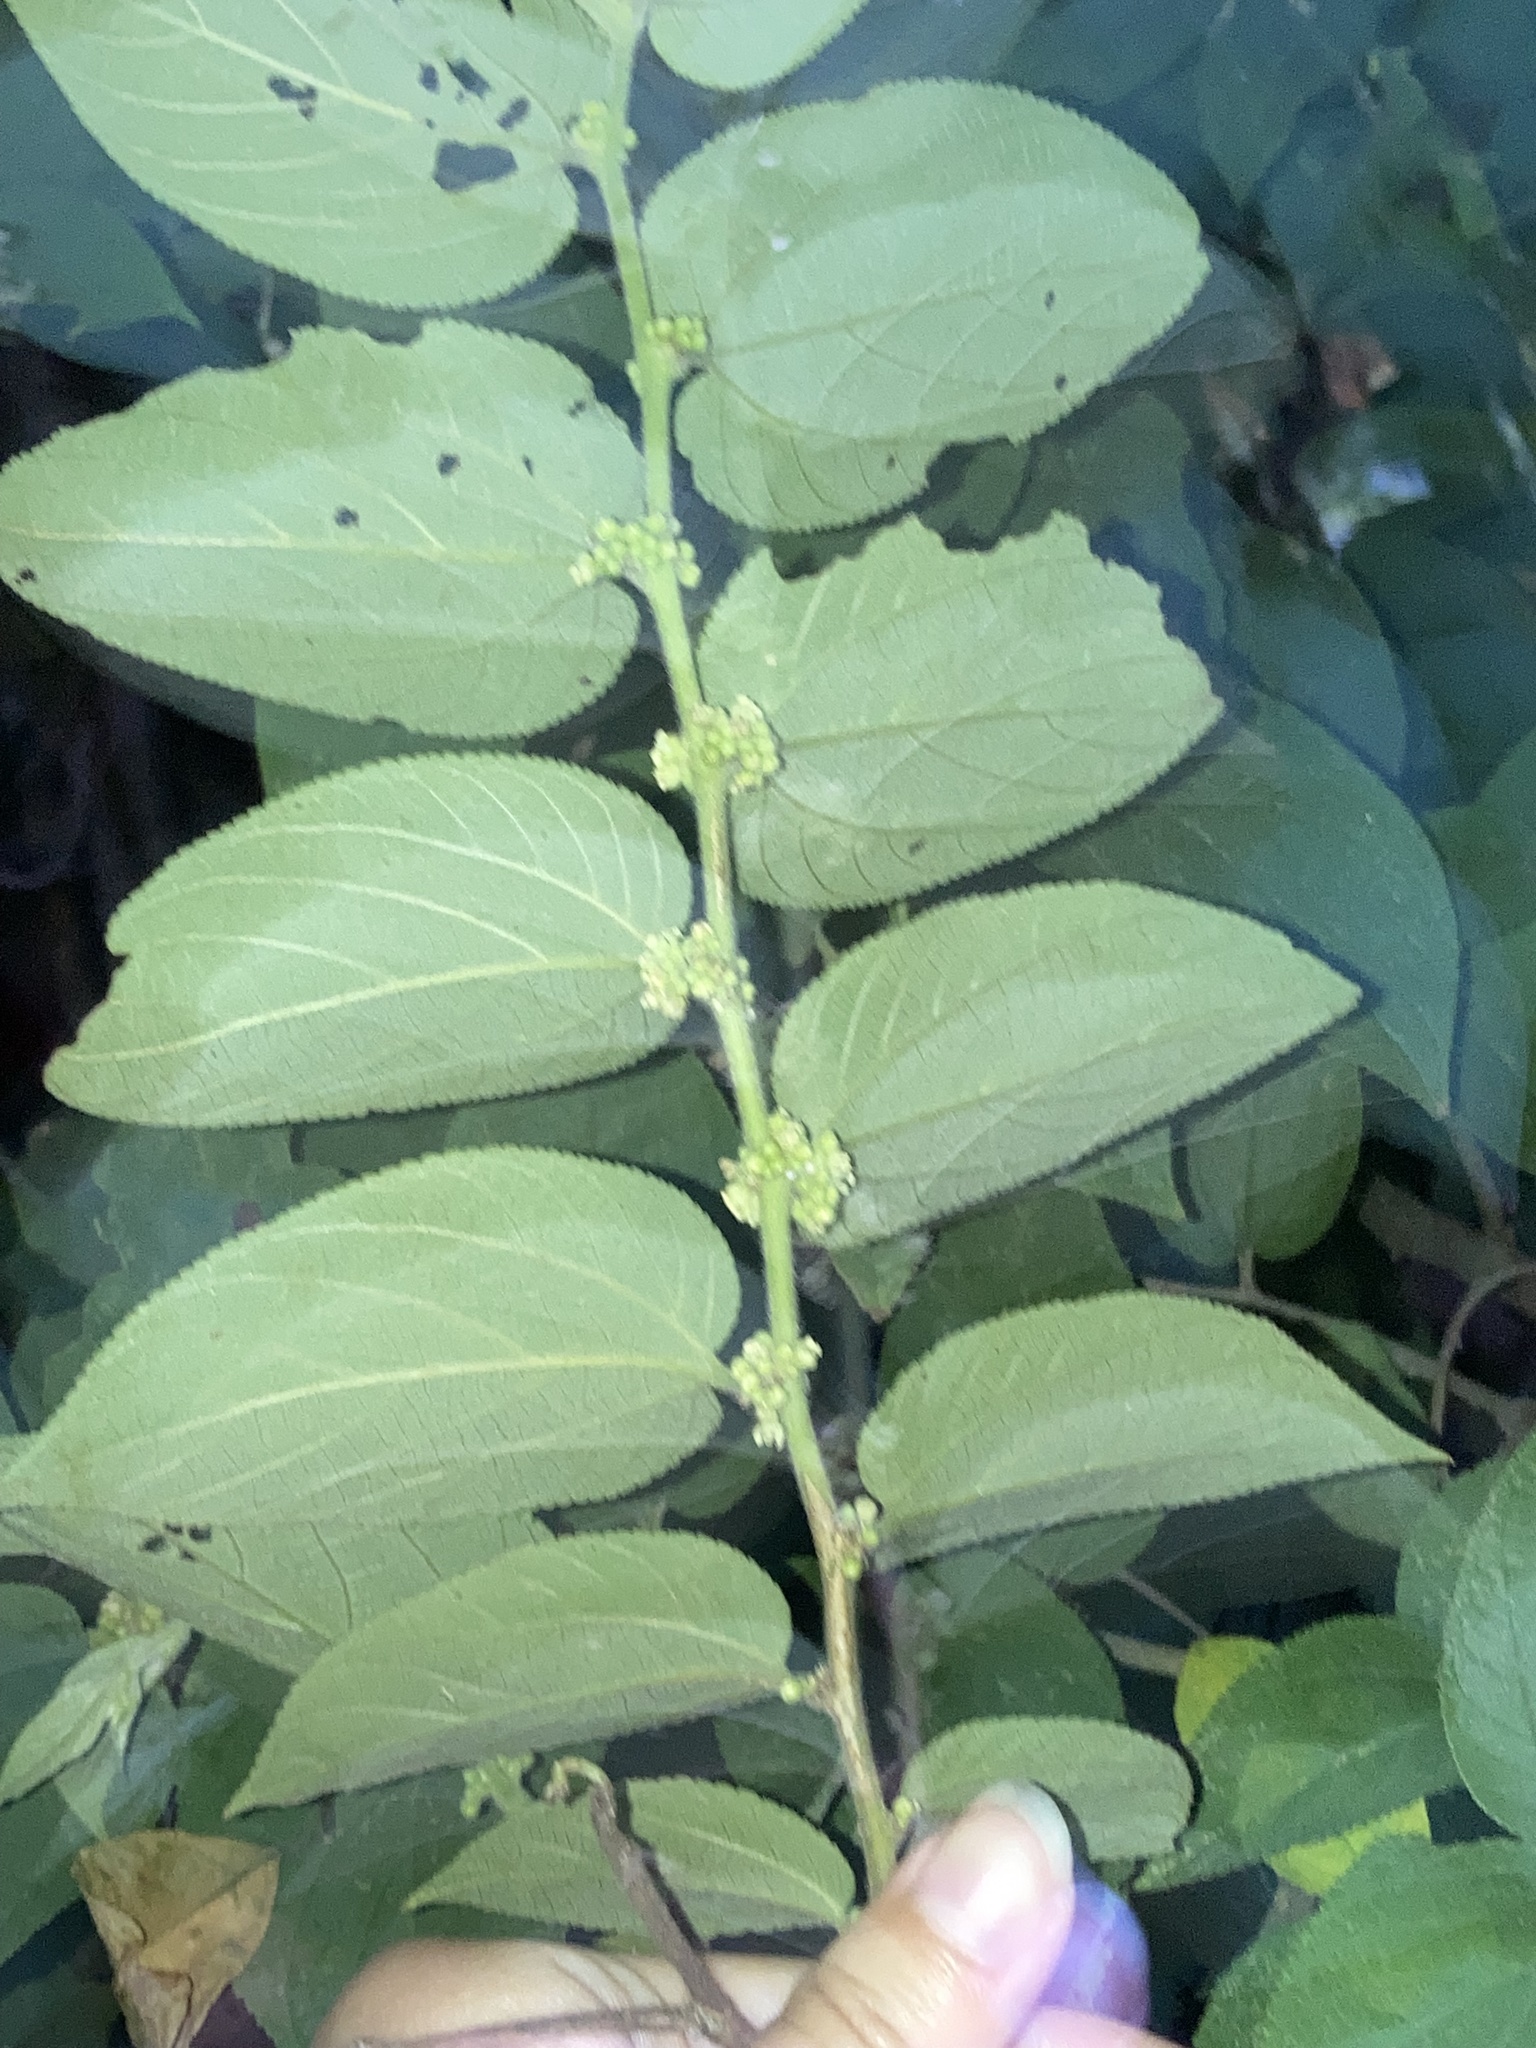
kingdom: Plantae
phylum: Tracheophyta
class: Magnoliopsida
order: Rosales
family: Cannabaceae
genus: Trema
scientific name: Trema micranthum
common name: Jamaican nettletree
